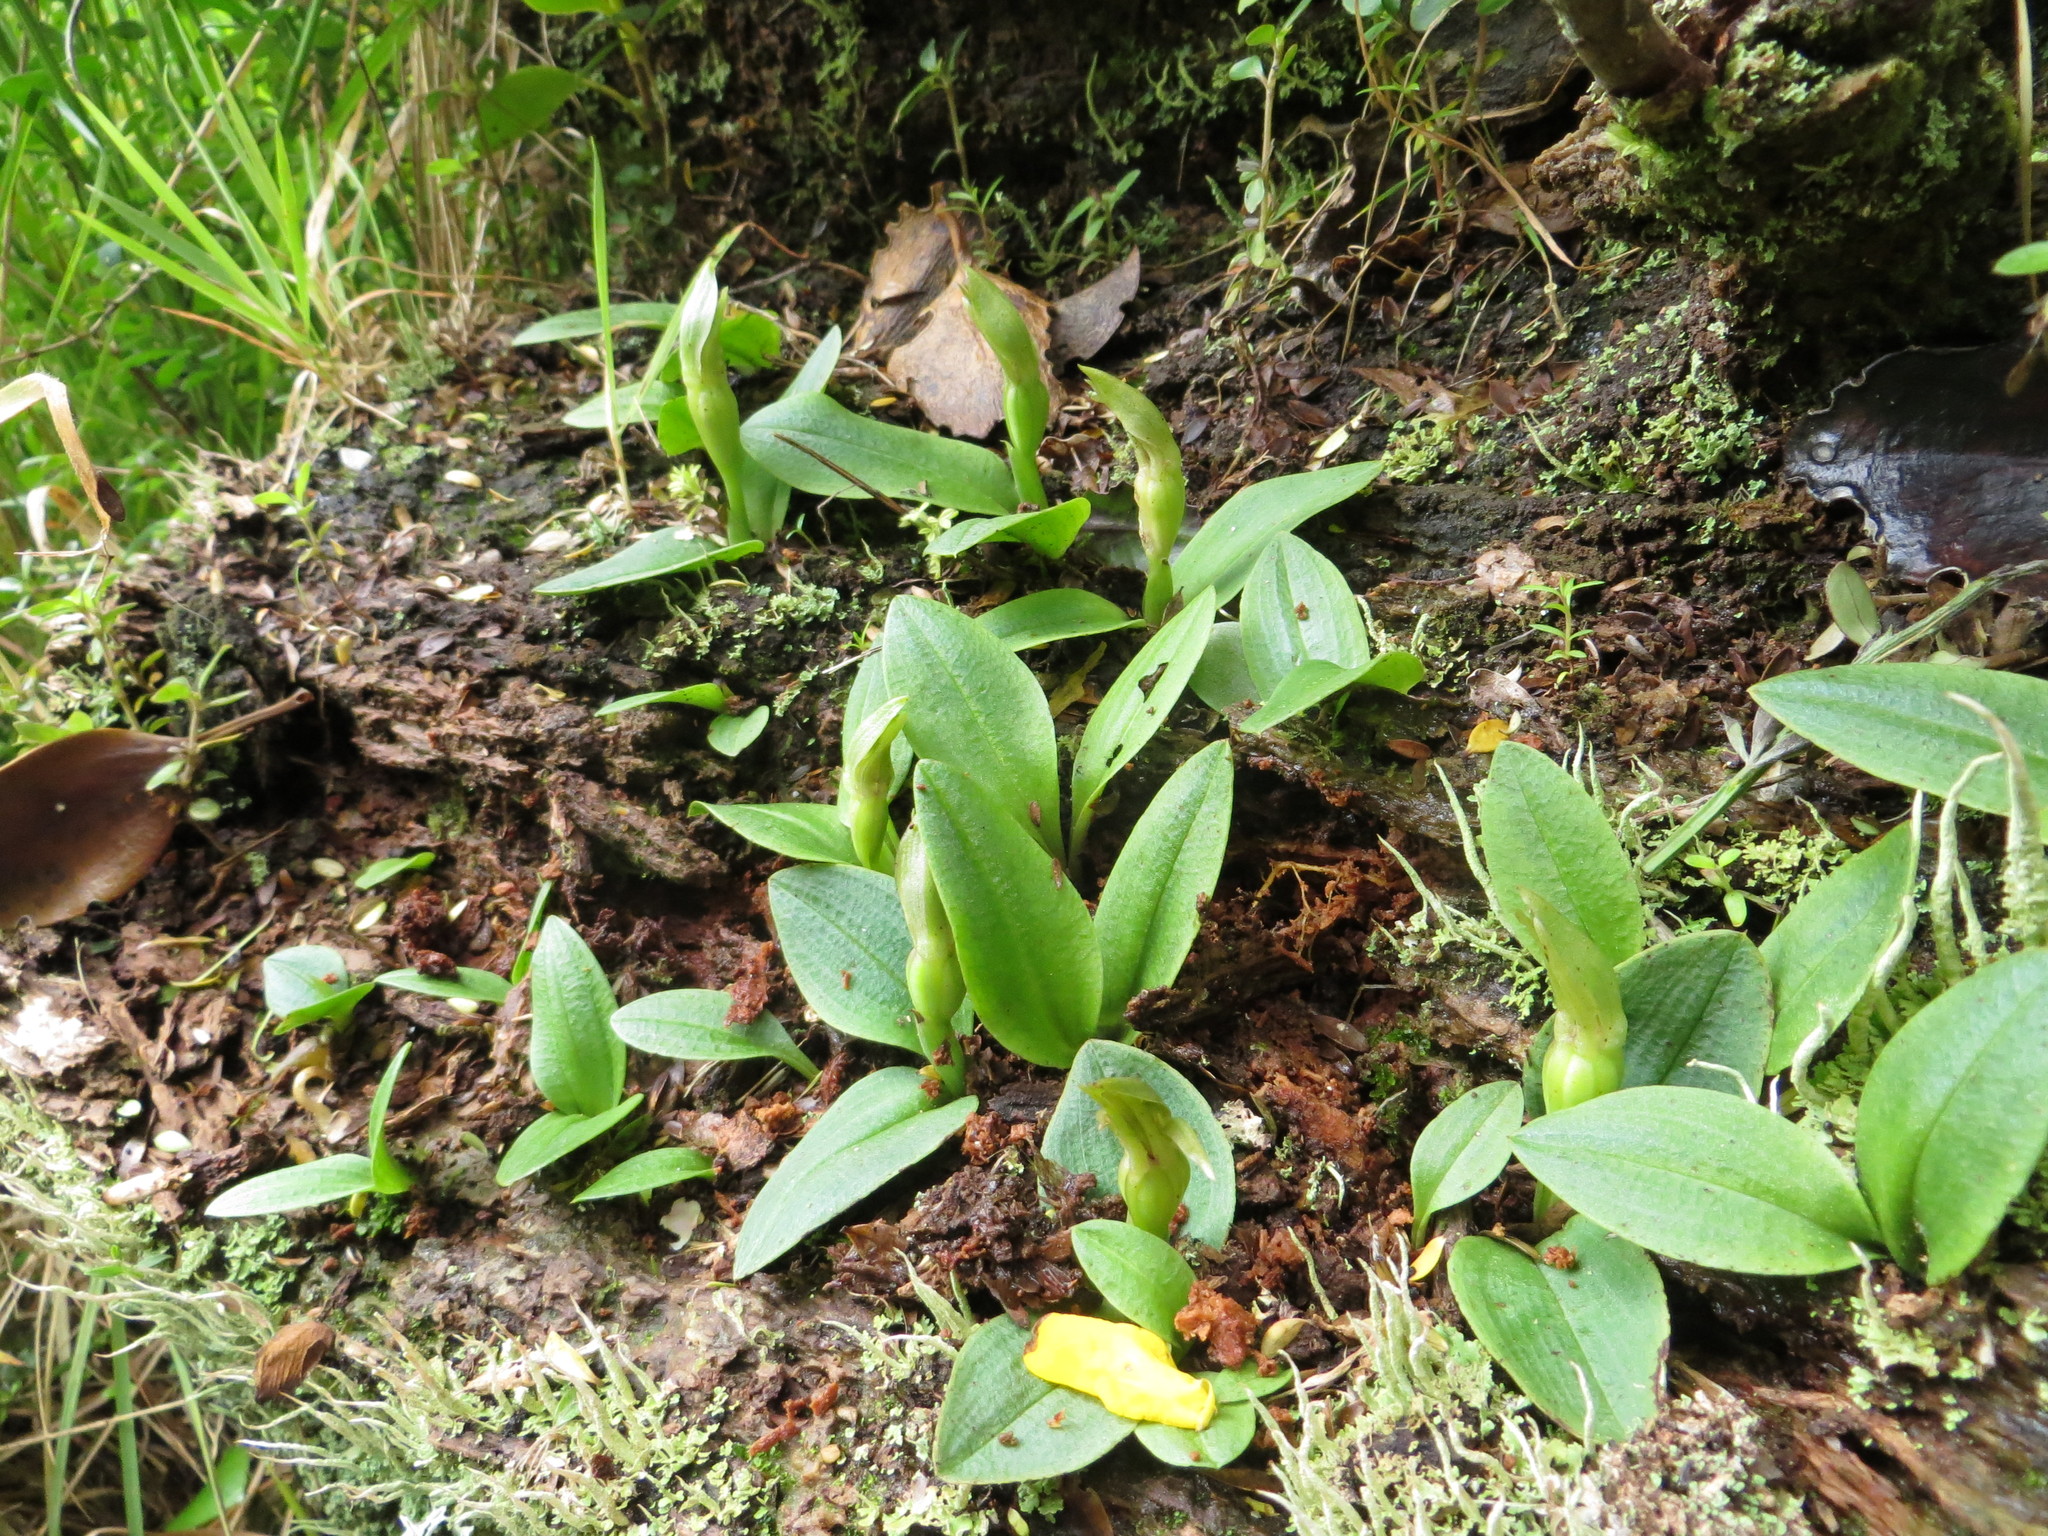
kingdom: Plantae
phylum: Tracheophyta
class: Liliopsida
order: Asparagales
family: Orchidaceae
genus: Chiloglottis
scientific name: Chiloglottis cornuta
